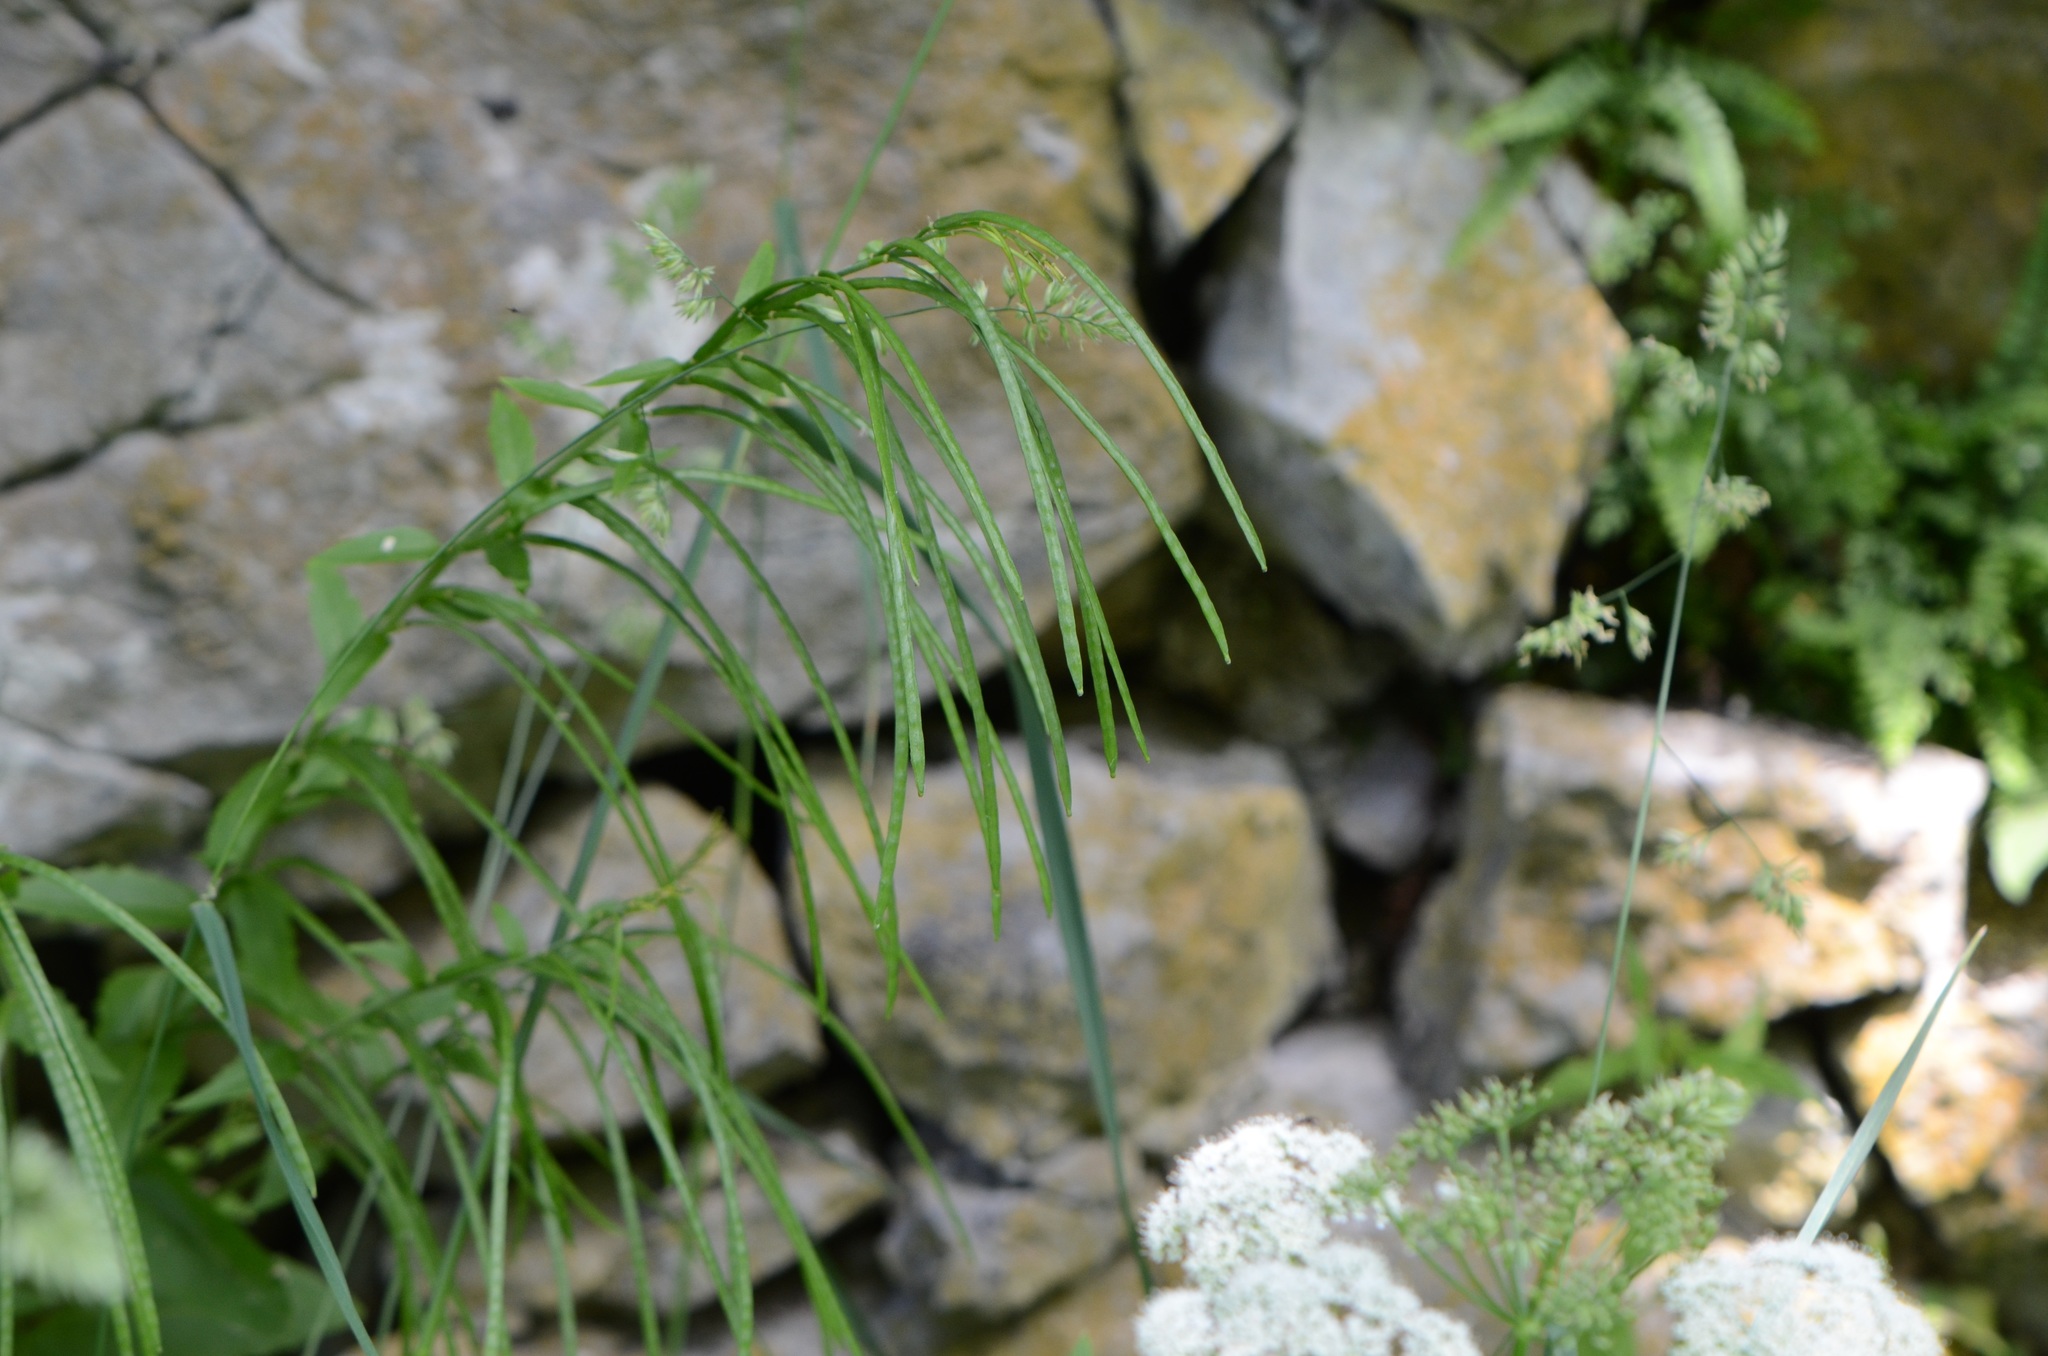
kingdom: Plantae
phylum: Tracheophyta
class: Magnoliopsida
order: Brassicales
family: Brassicaceae
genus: Pseudoturritis
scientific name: Pseudoturritis turrita
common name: Tower cress
